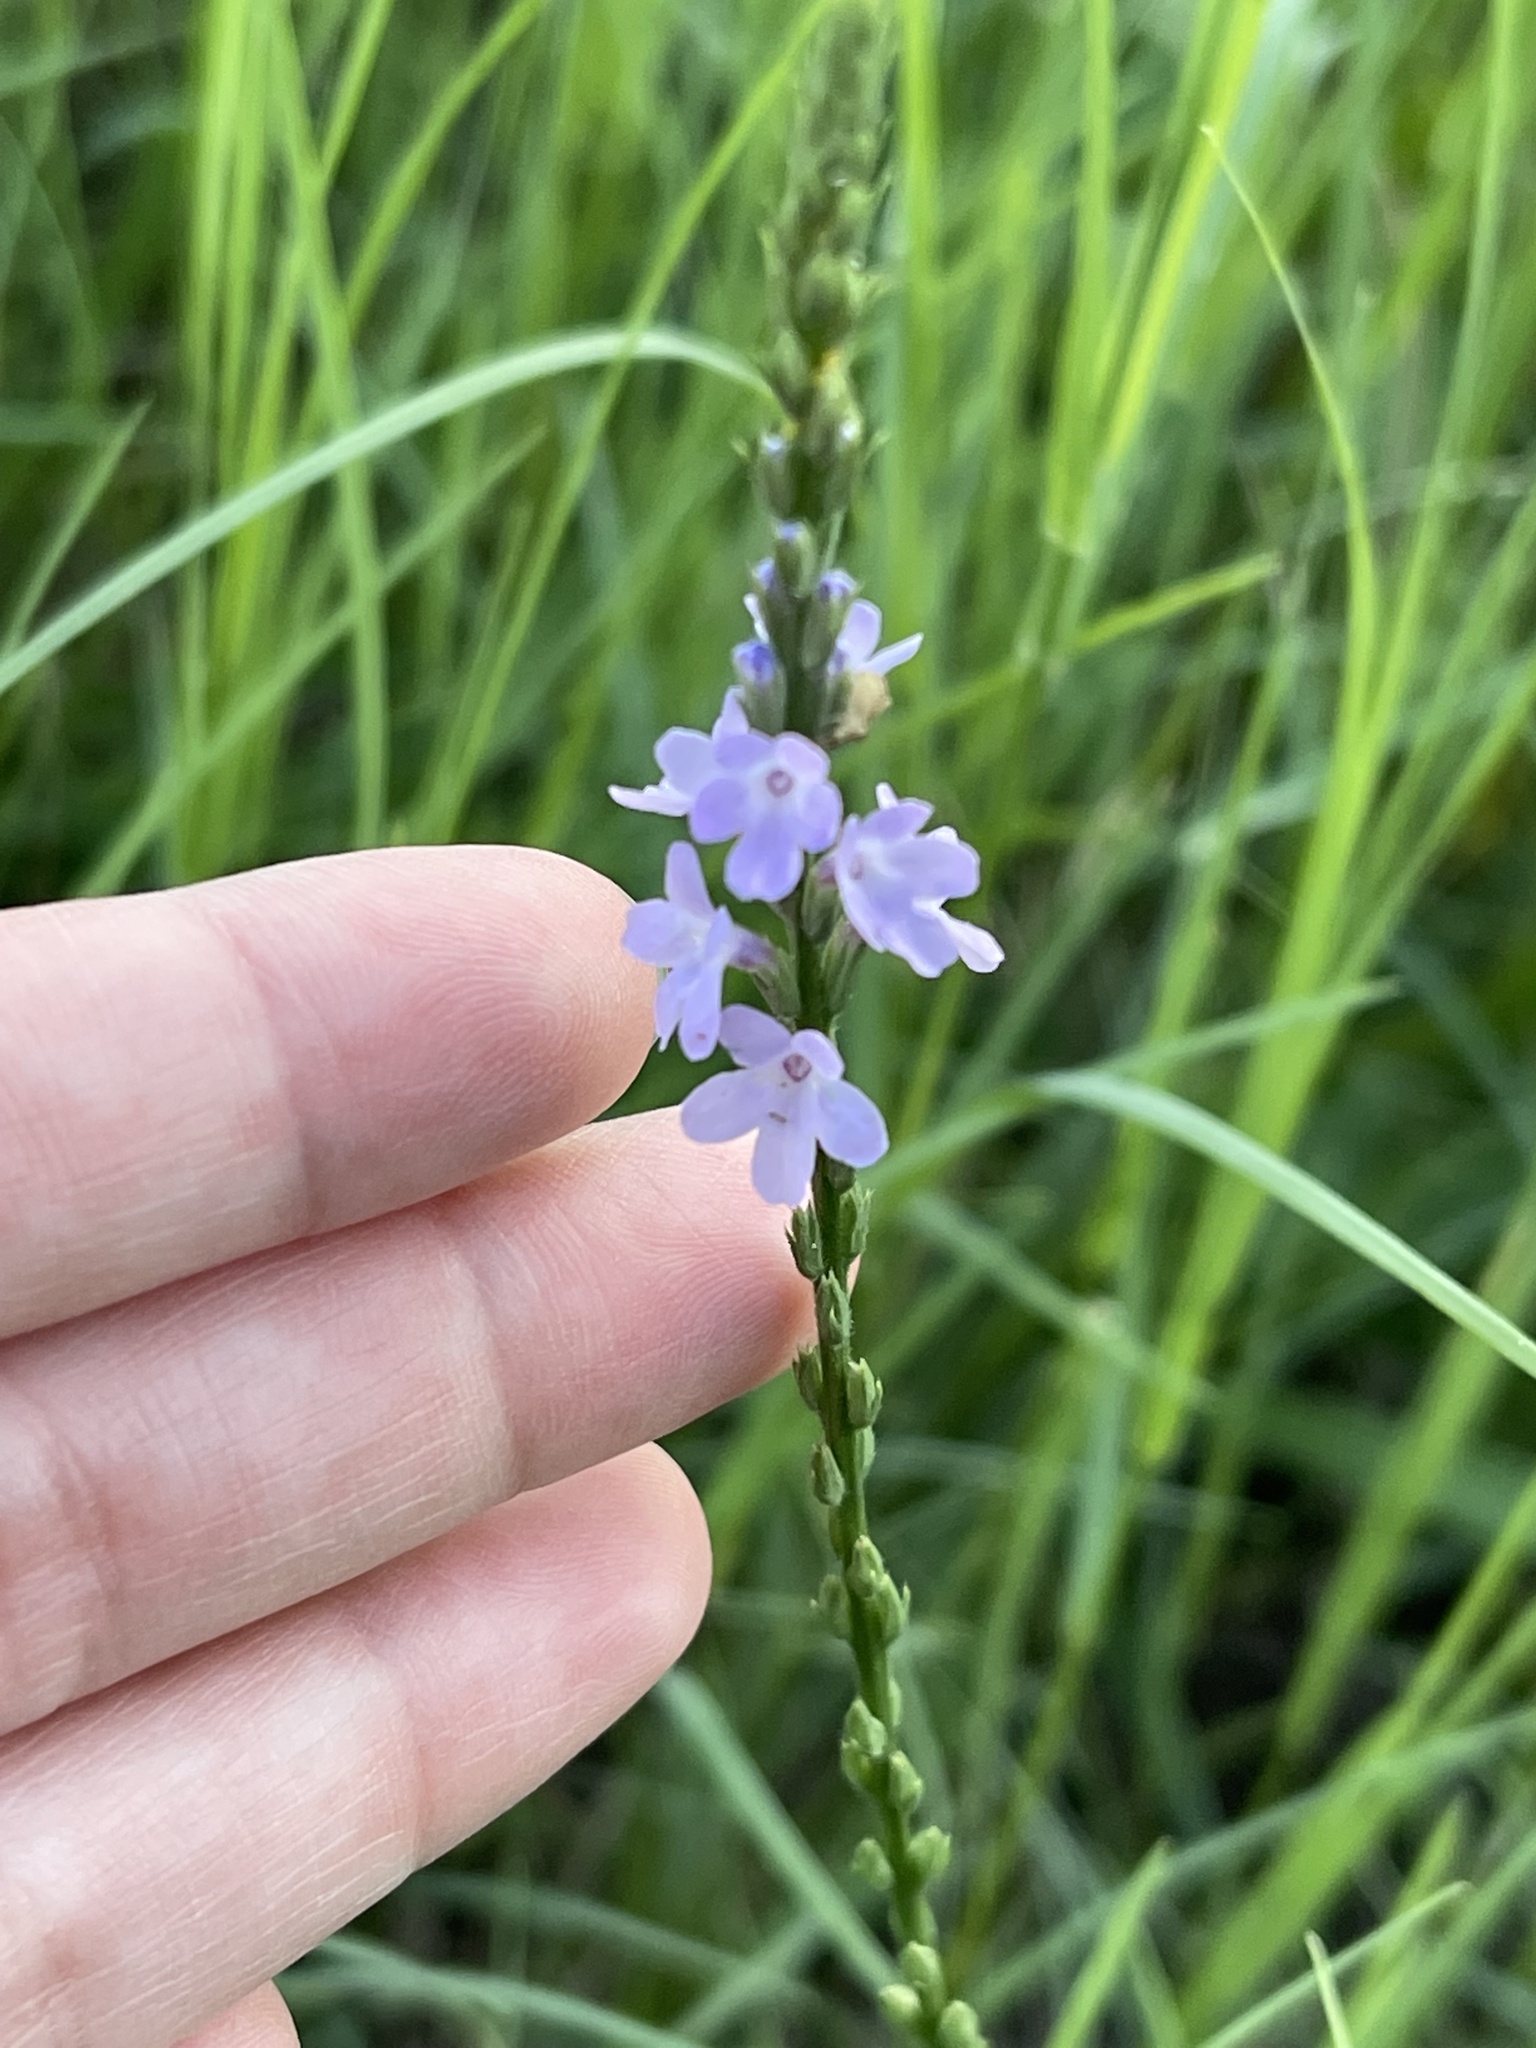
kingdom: Plantae
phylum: Tracheophyta
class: Magnoliopsida
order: Lamiales
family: Verbenaceae
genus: Verbena
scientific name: Verbena halei
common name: Texas vervain
